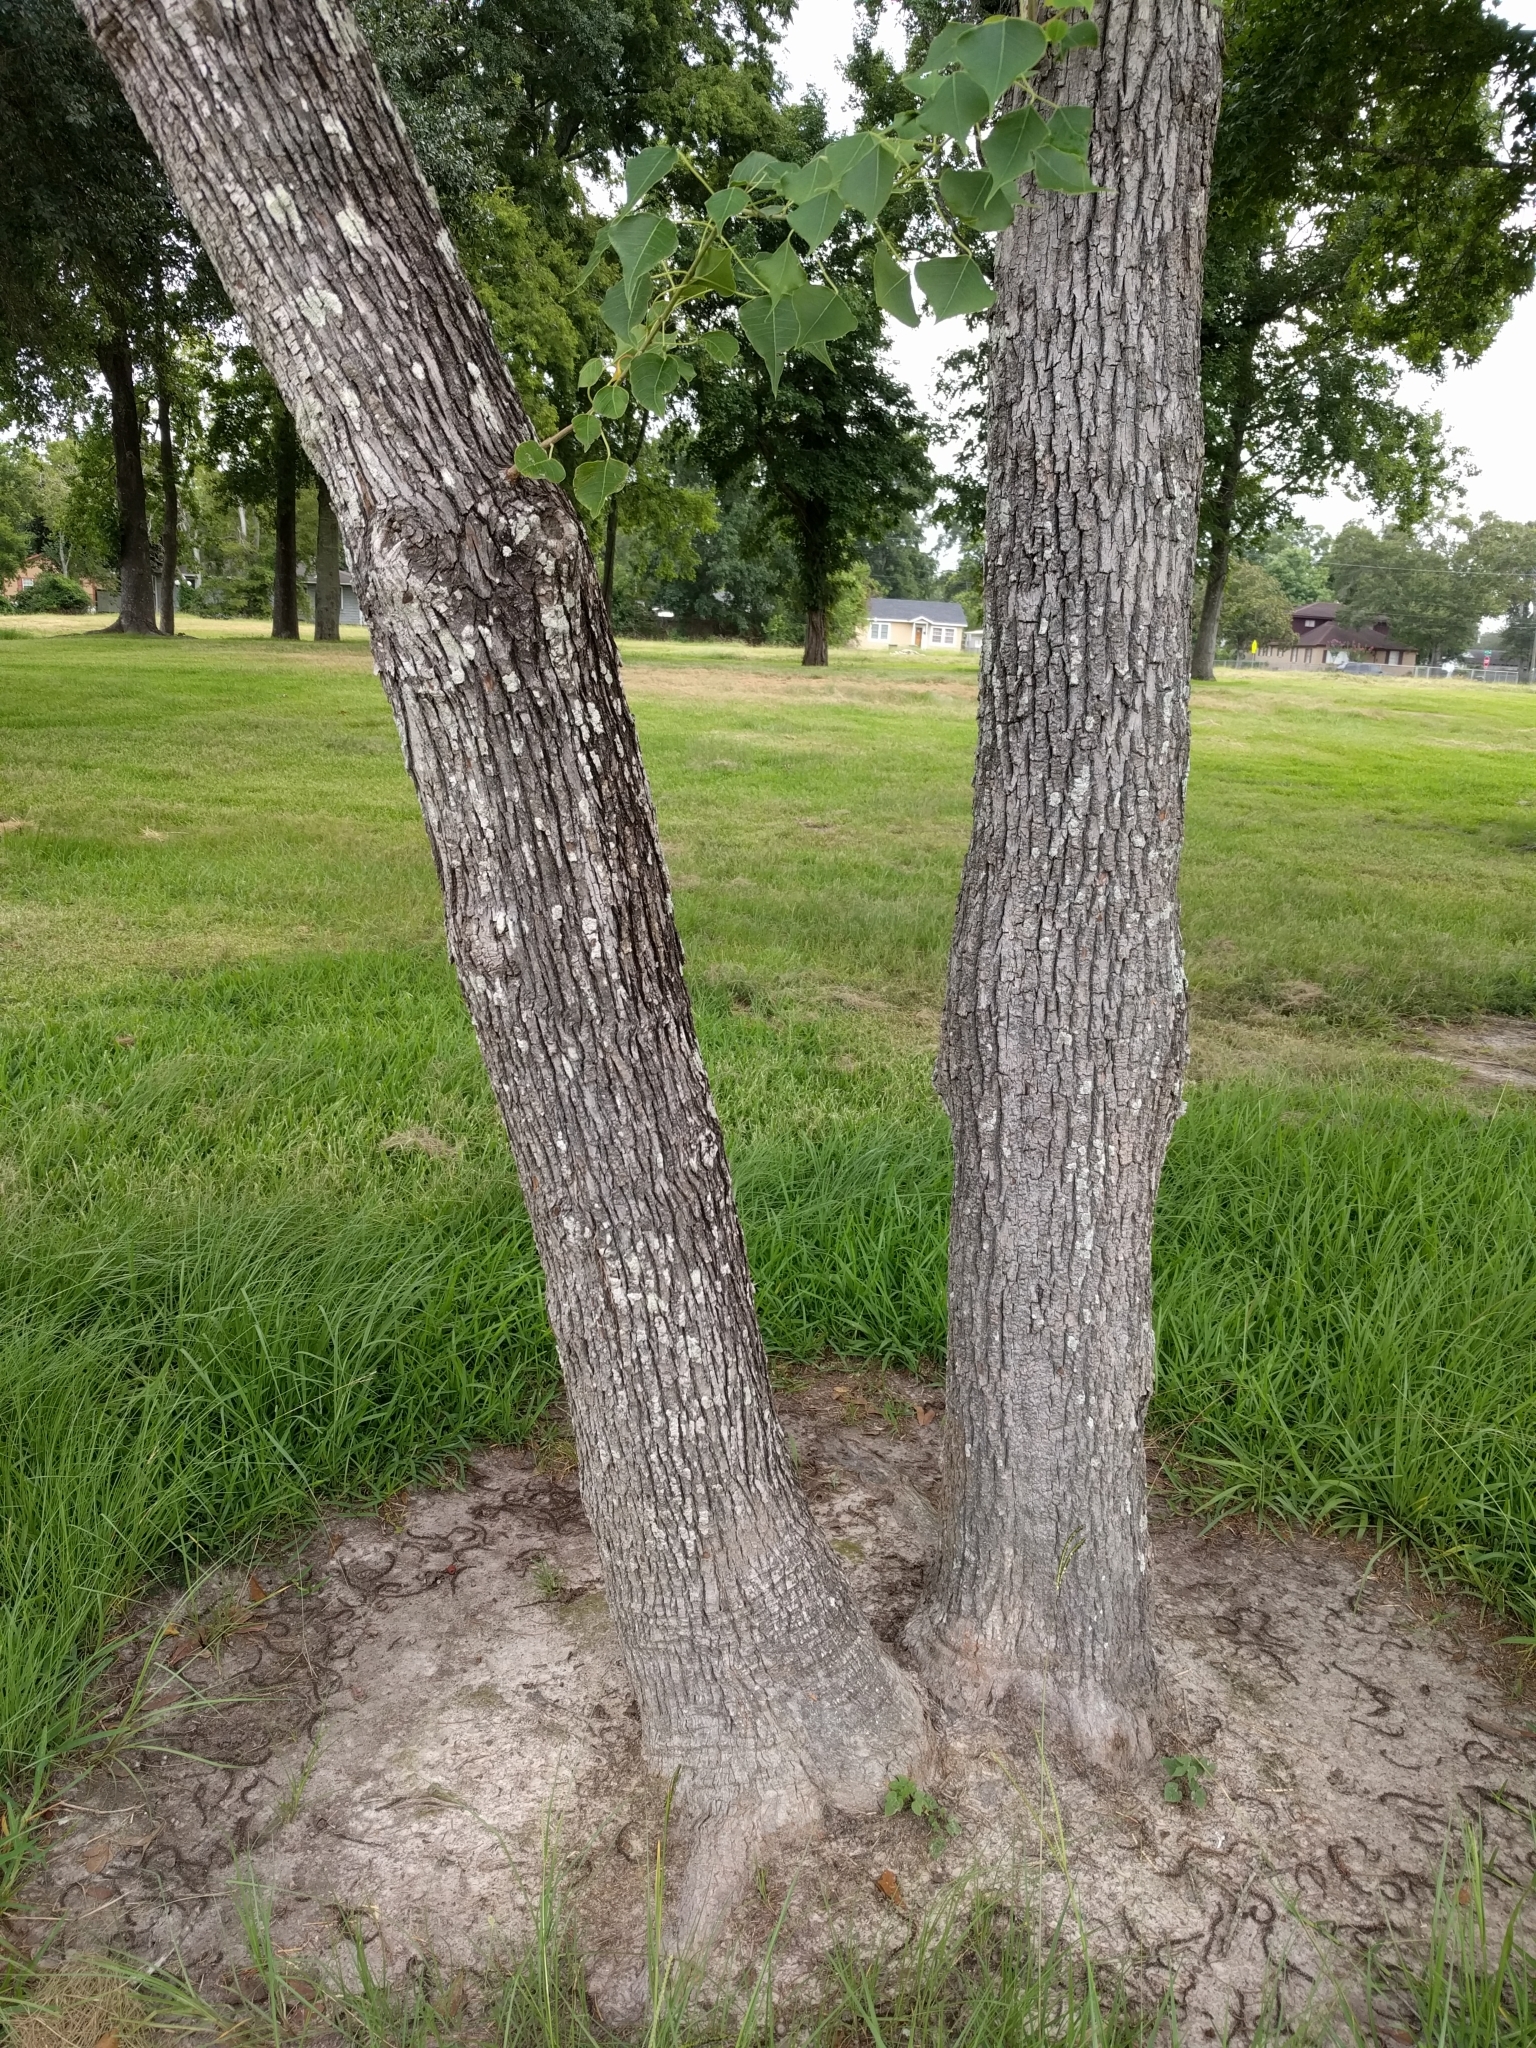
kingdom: Plantae
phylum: Tracheophyta
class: Magnoliopsida
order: Malpighiales
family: Euphorbiaceae
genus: Triadica
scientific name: Triadica sebifera
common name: Chinese tallow
